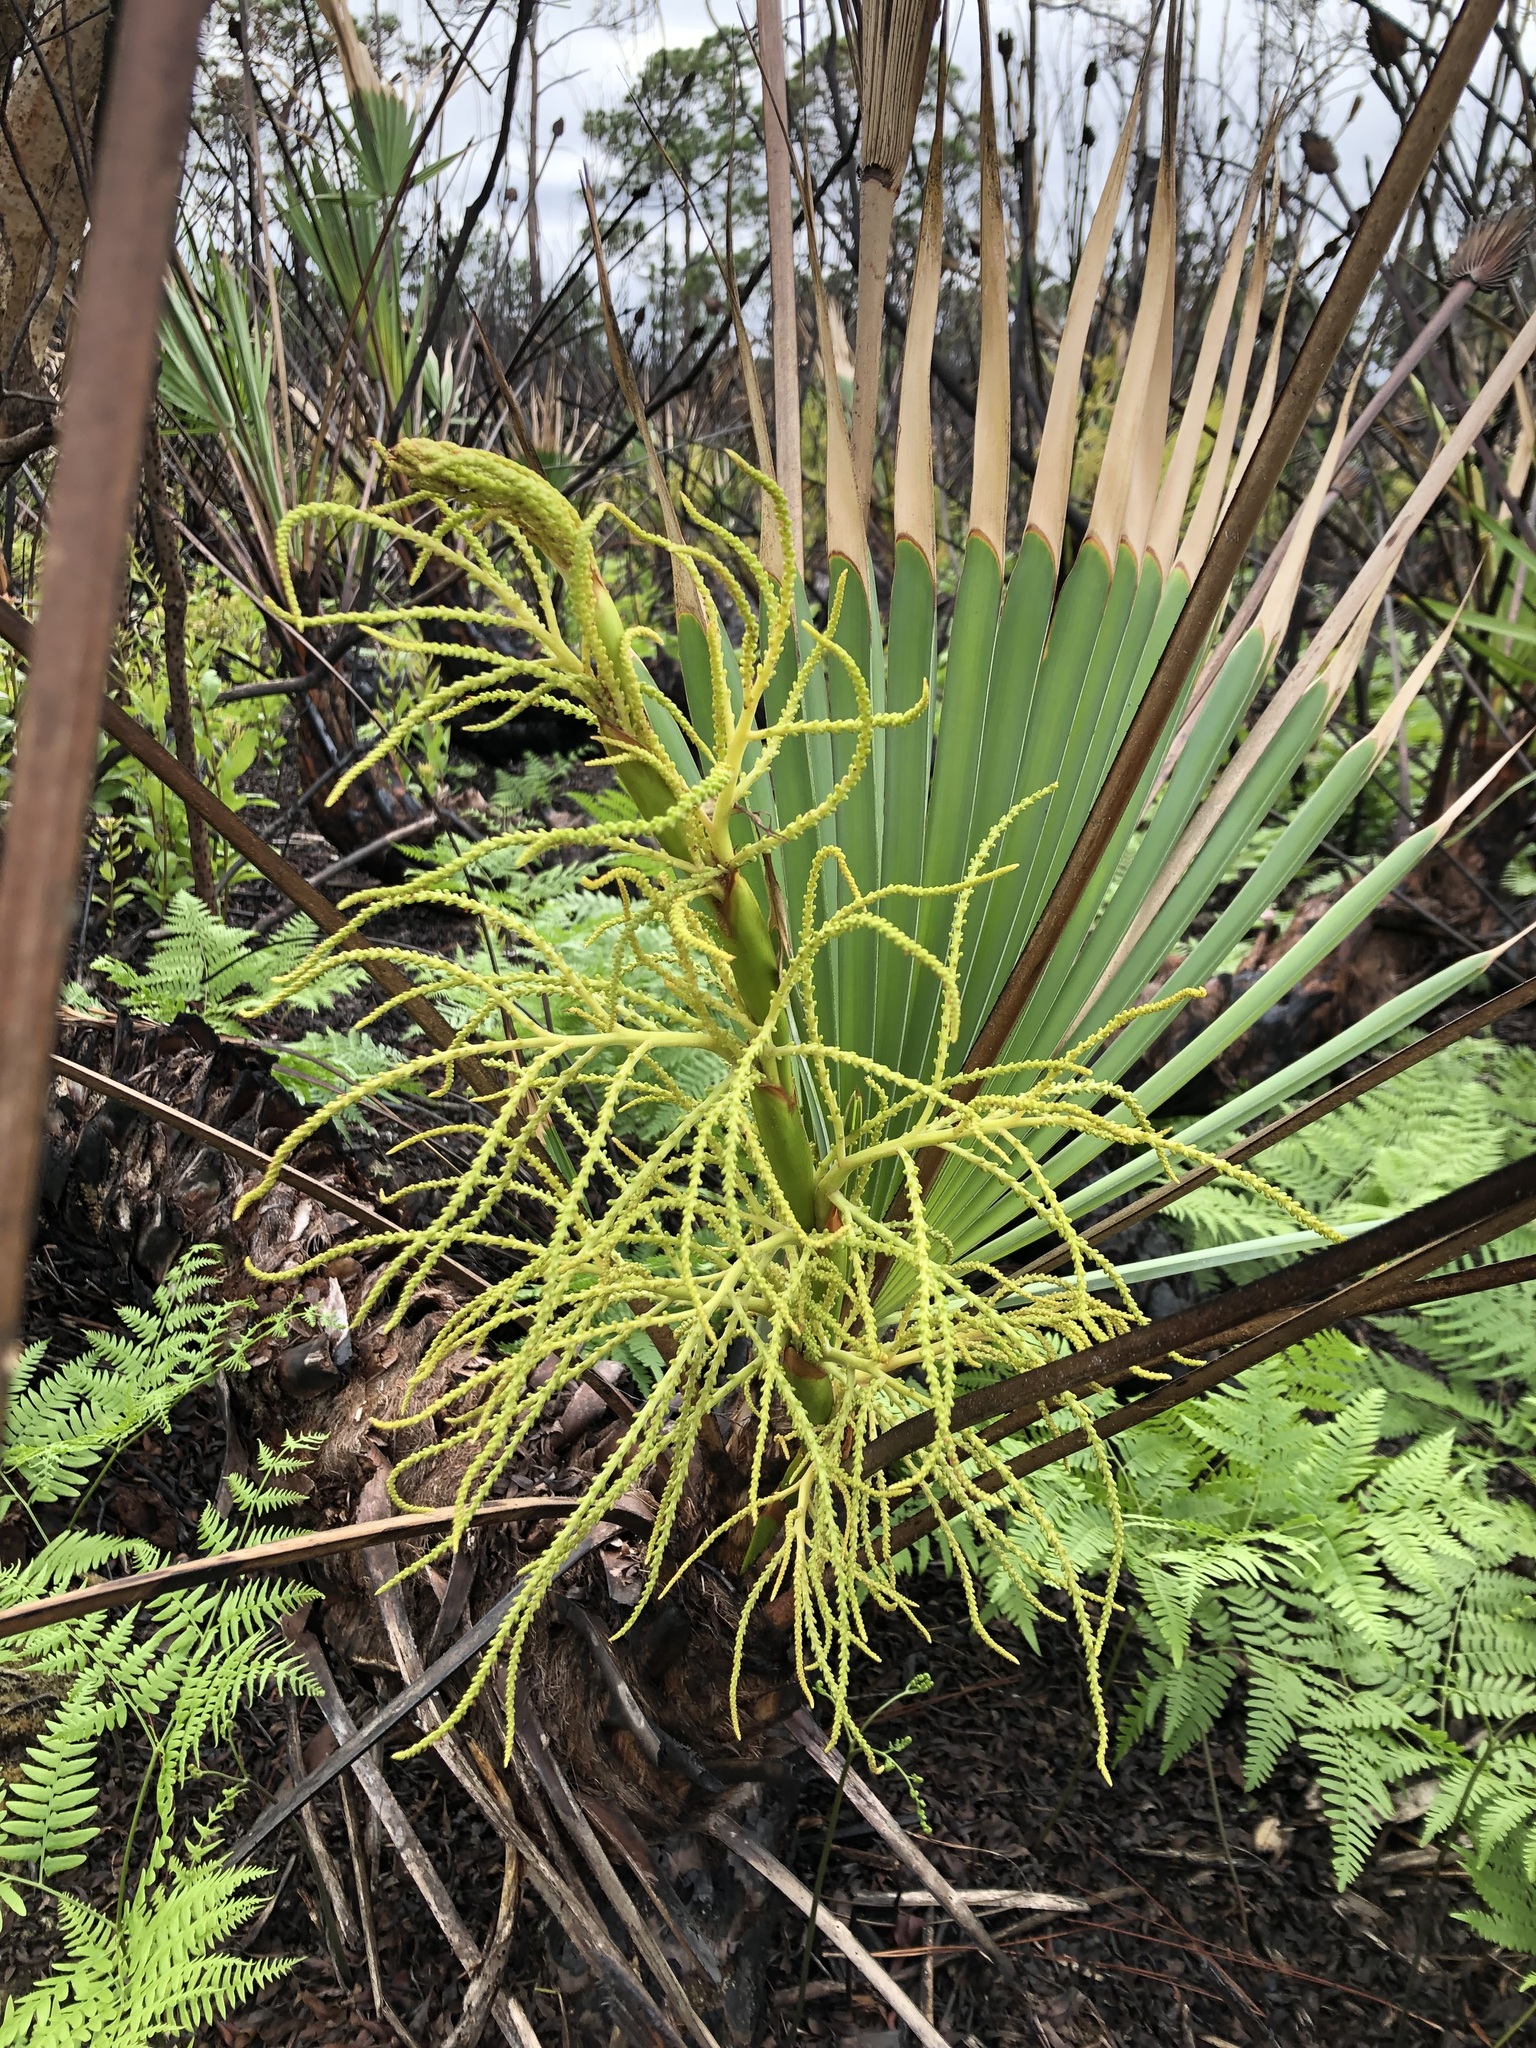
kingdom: Plantae
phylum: Tracheophyta
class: Liliopsida
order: Arecales
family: Arecaceae
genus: Serenoa
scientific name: Serenoa repens
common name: Saw-palmetto
